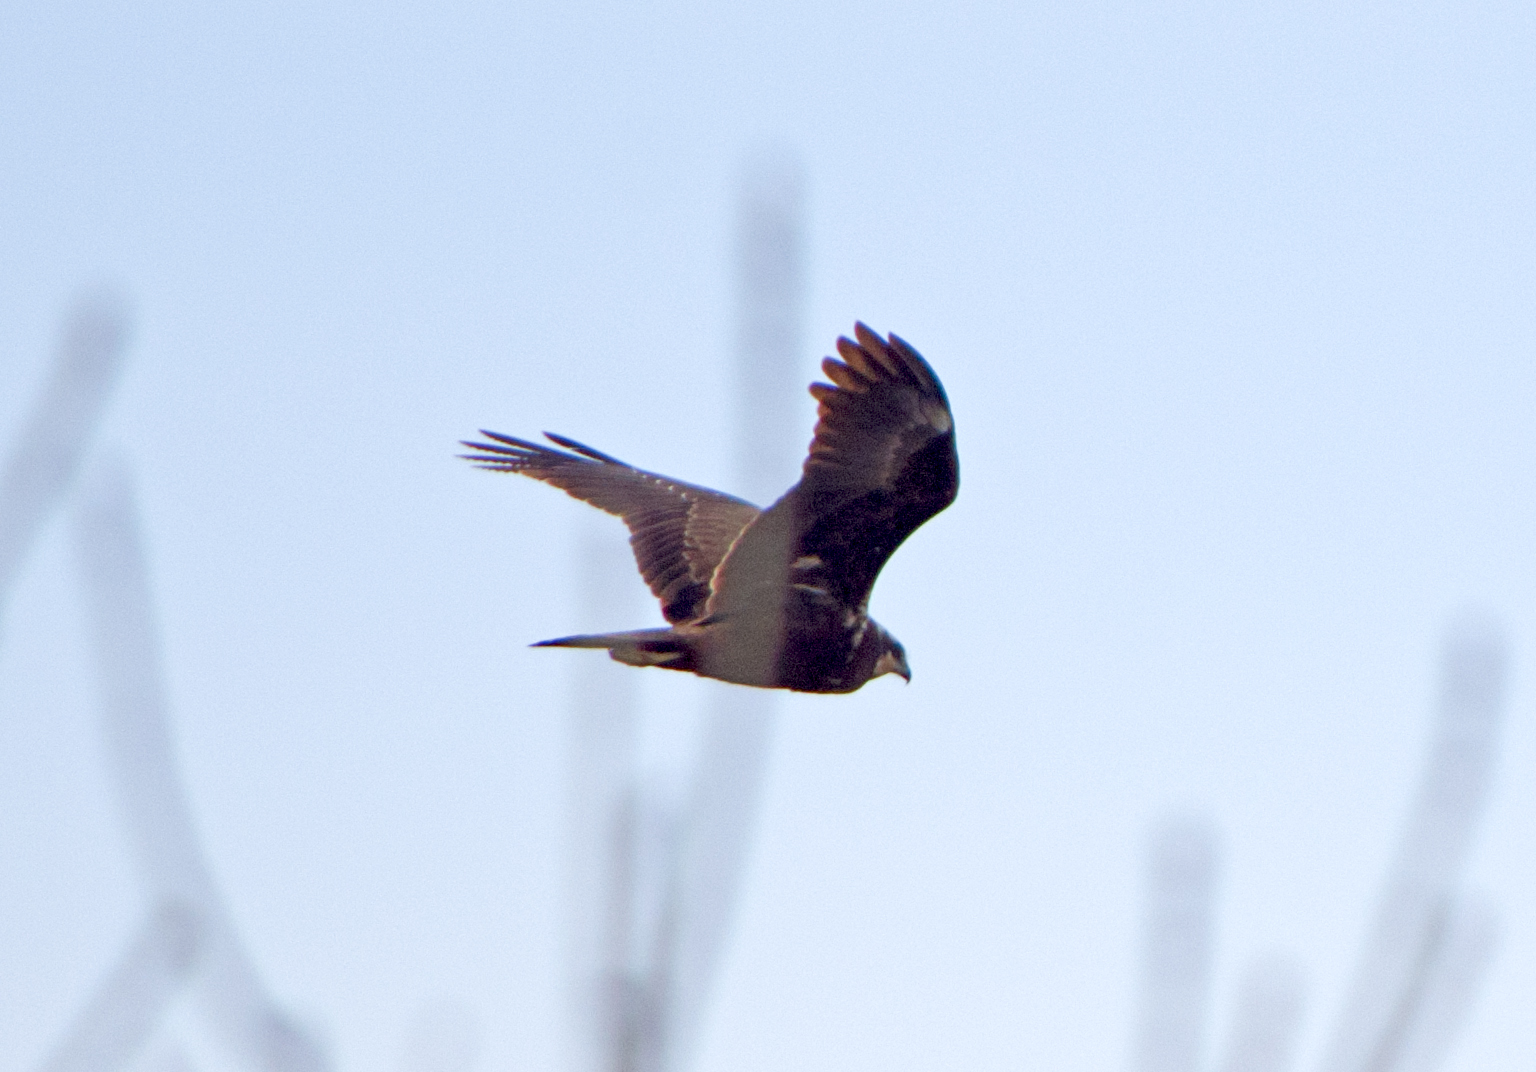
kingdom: Animalia
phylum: Chordata
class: Aves
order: Accipitriformes
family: Accipitridae
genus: Circus
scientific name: Circus aeruginosus
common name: Western marsh harrier
